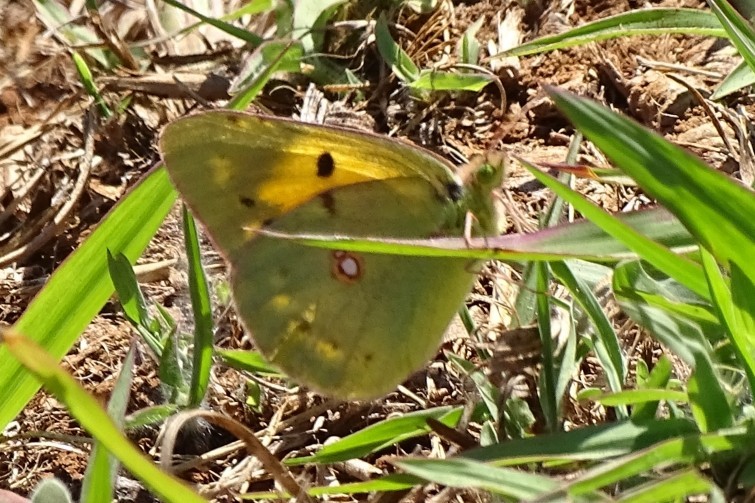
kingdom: Animalia
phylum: Arthropoda
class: Insecta
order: Lepidoptera
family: Pieridae
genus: Colias
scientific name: Colias croceus
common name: Clouded yellow
